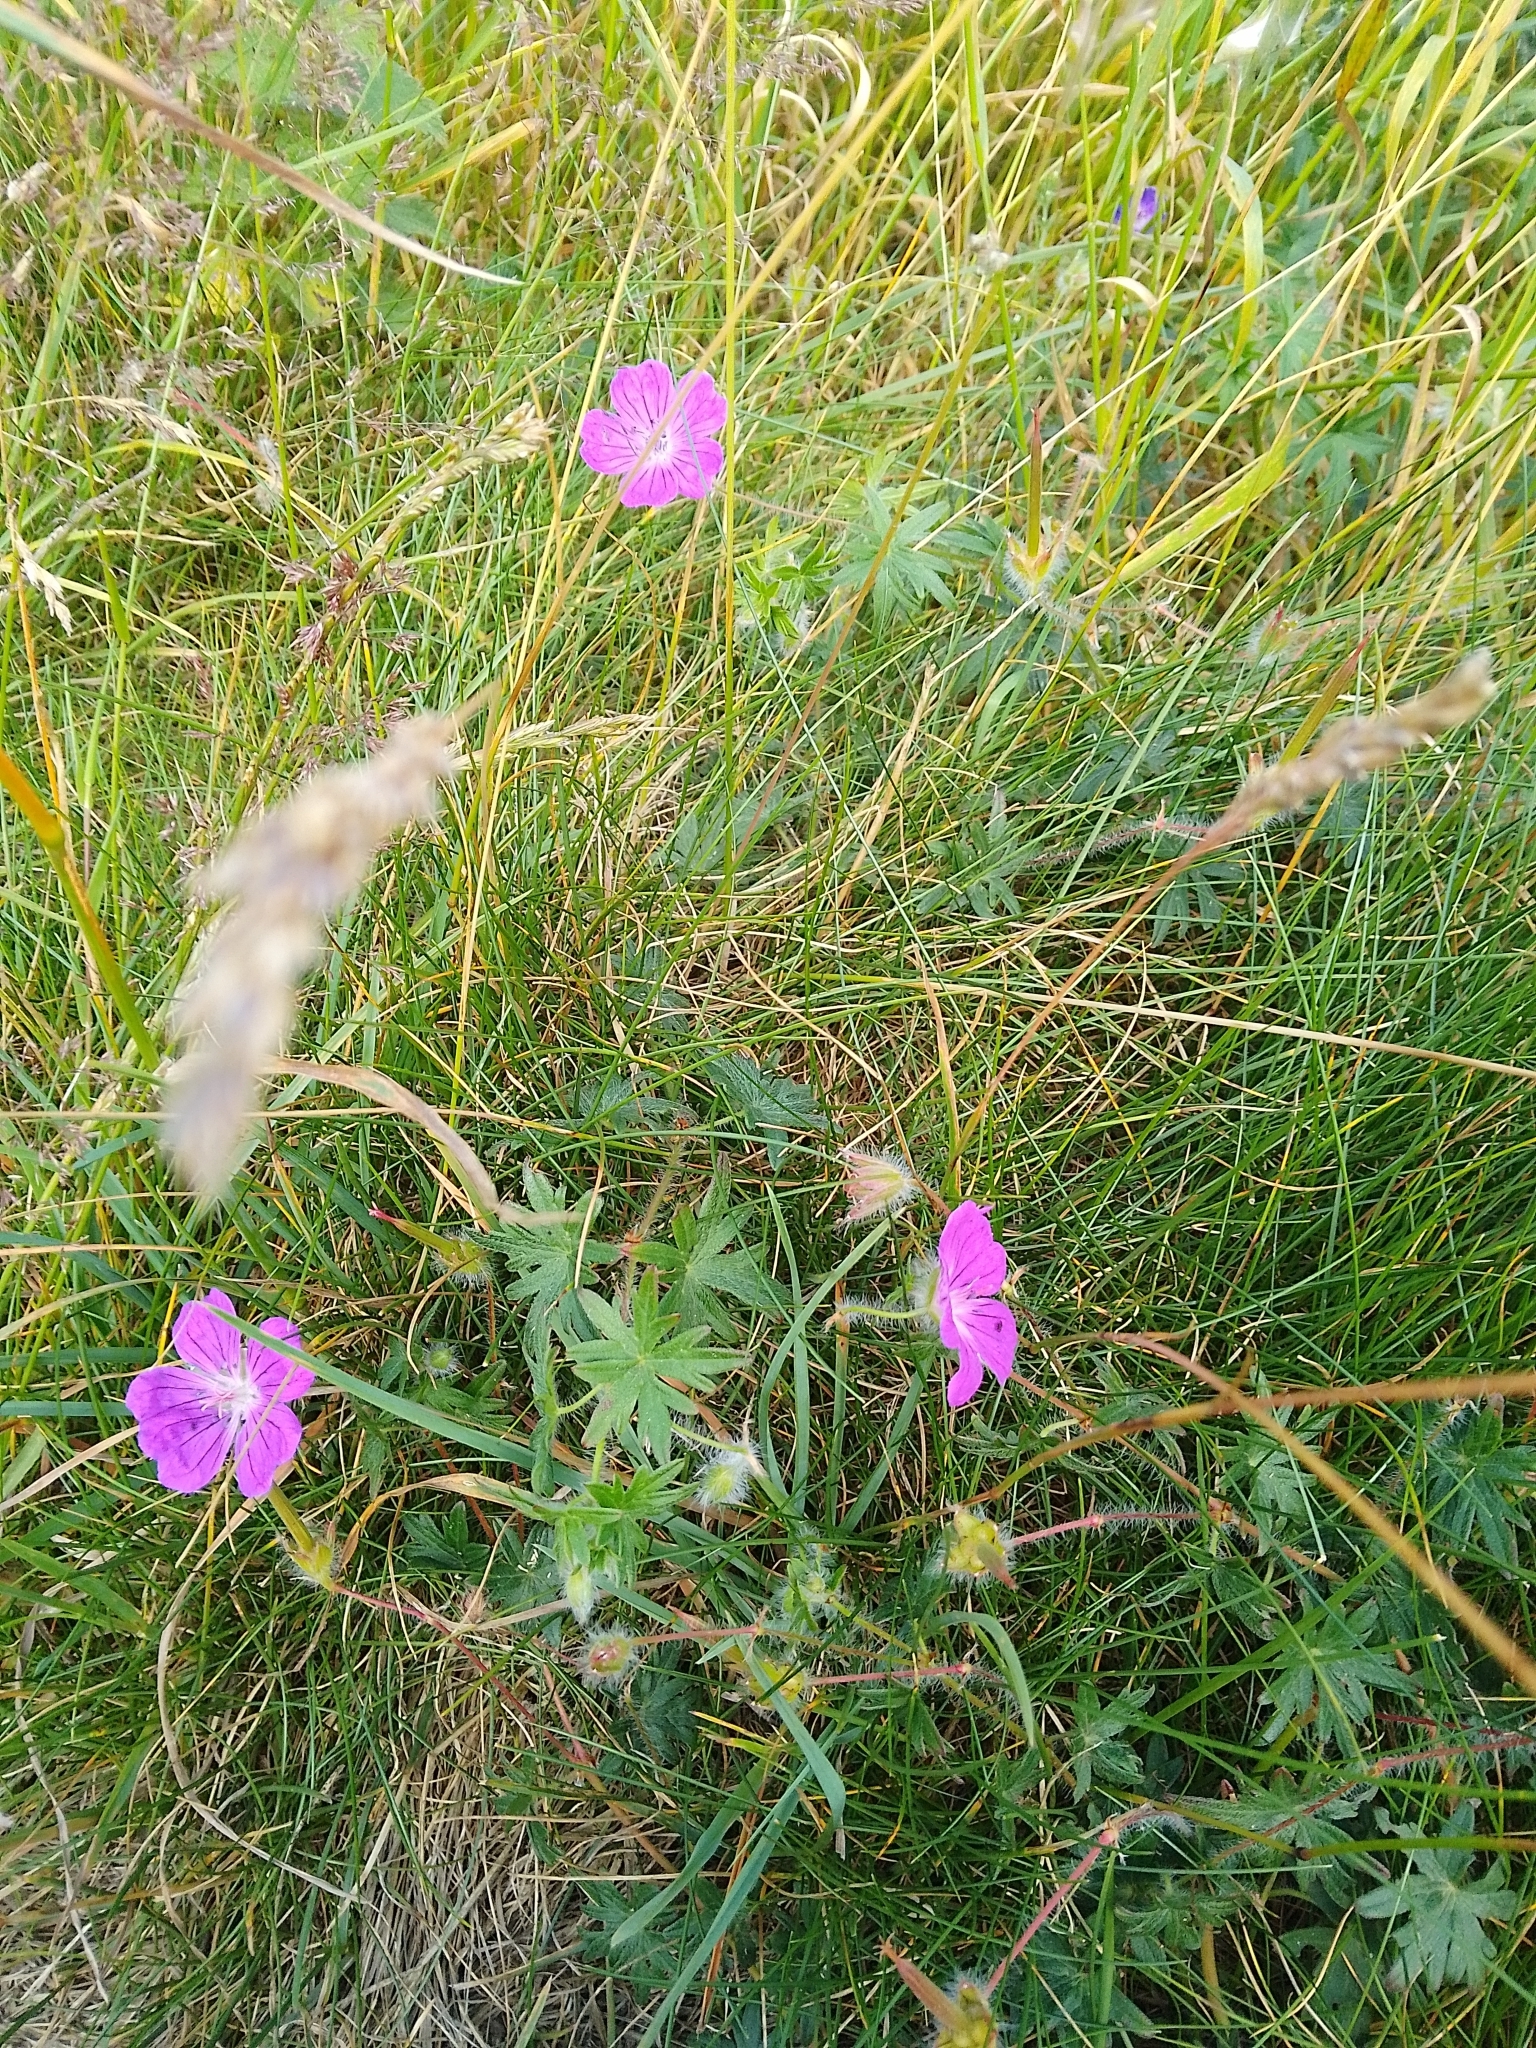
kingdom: Plantae
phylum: Tracheophyta
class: Magnoliopsida
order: Geraniales
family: Geraniaceae
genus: Geranium
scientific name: Geranium sanguineum
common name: Bloody crane's-bill
